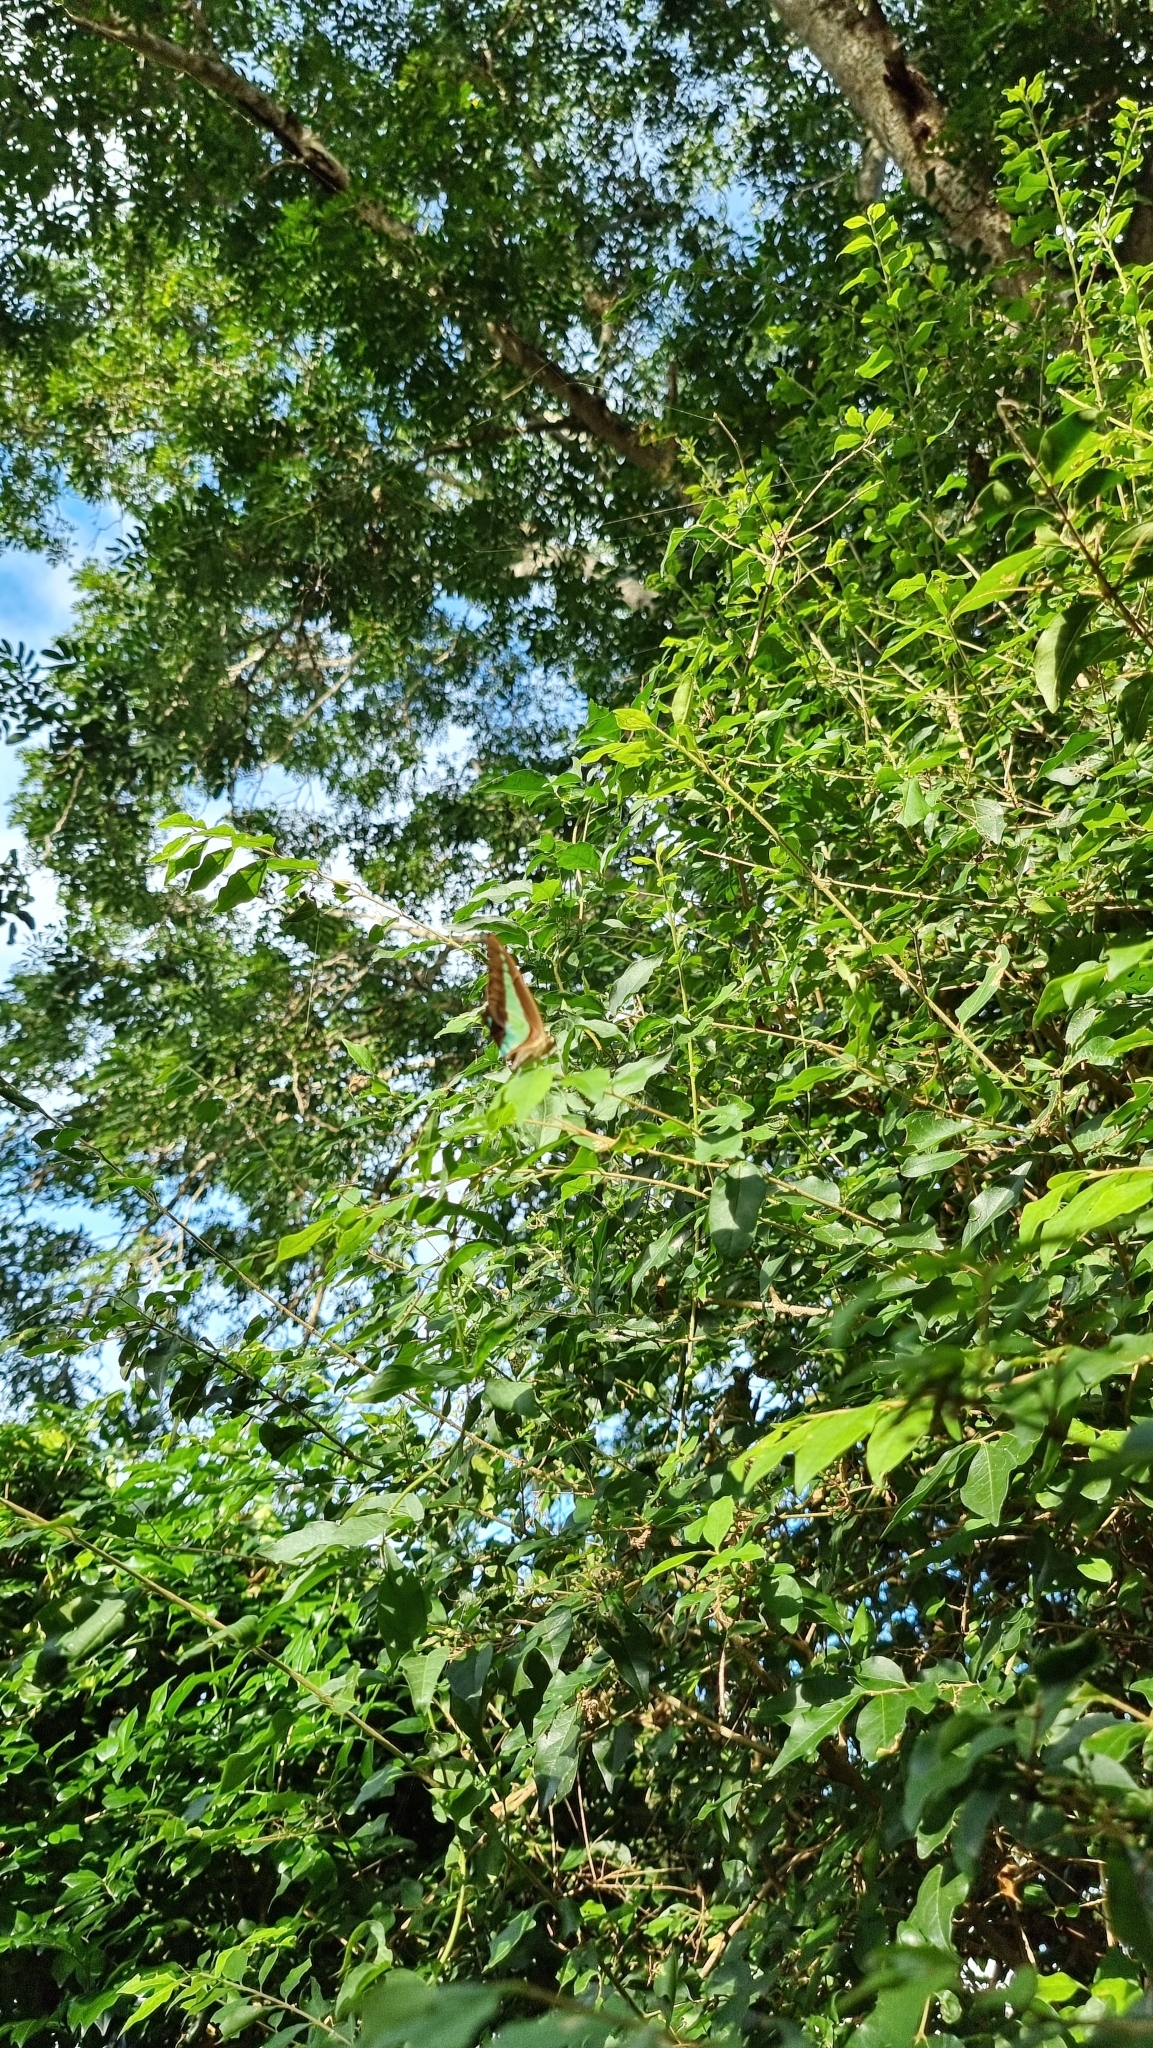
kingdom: Animalia
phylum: Arthropoda
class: Insecta
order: Lepidoptera
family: Papilionidae
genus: Graphium
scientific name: Graphium
